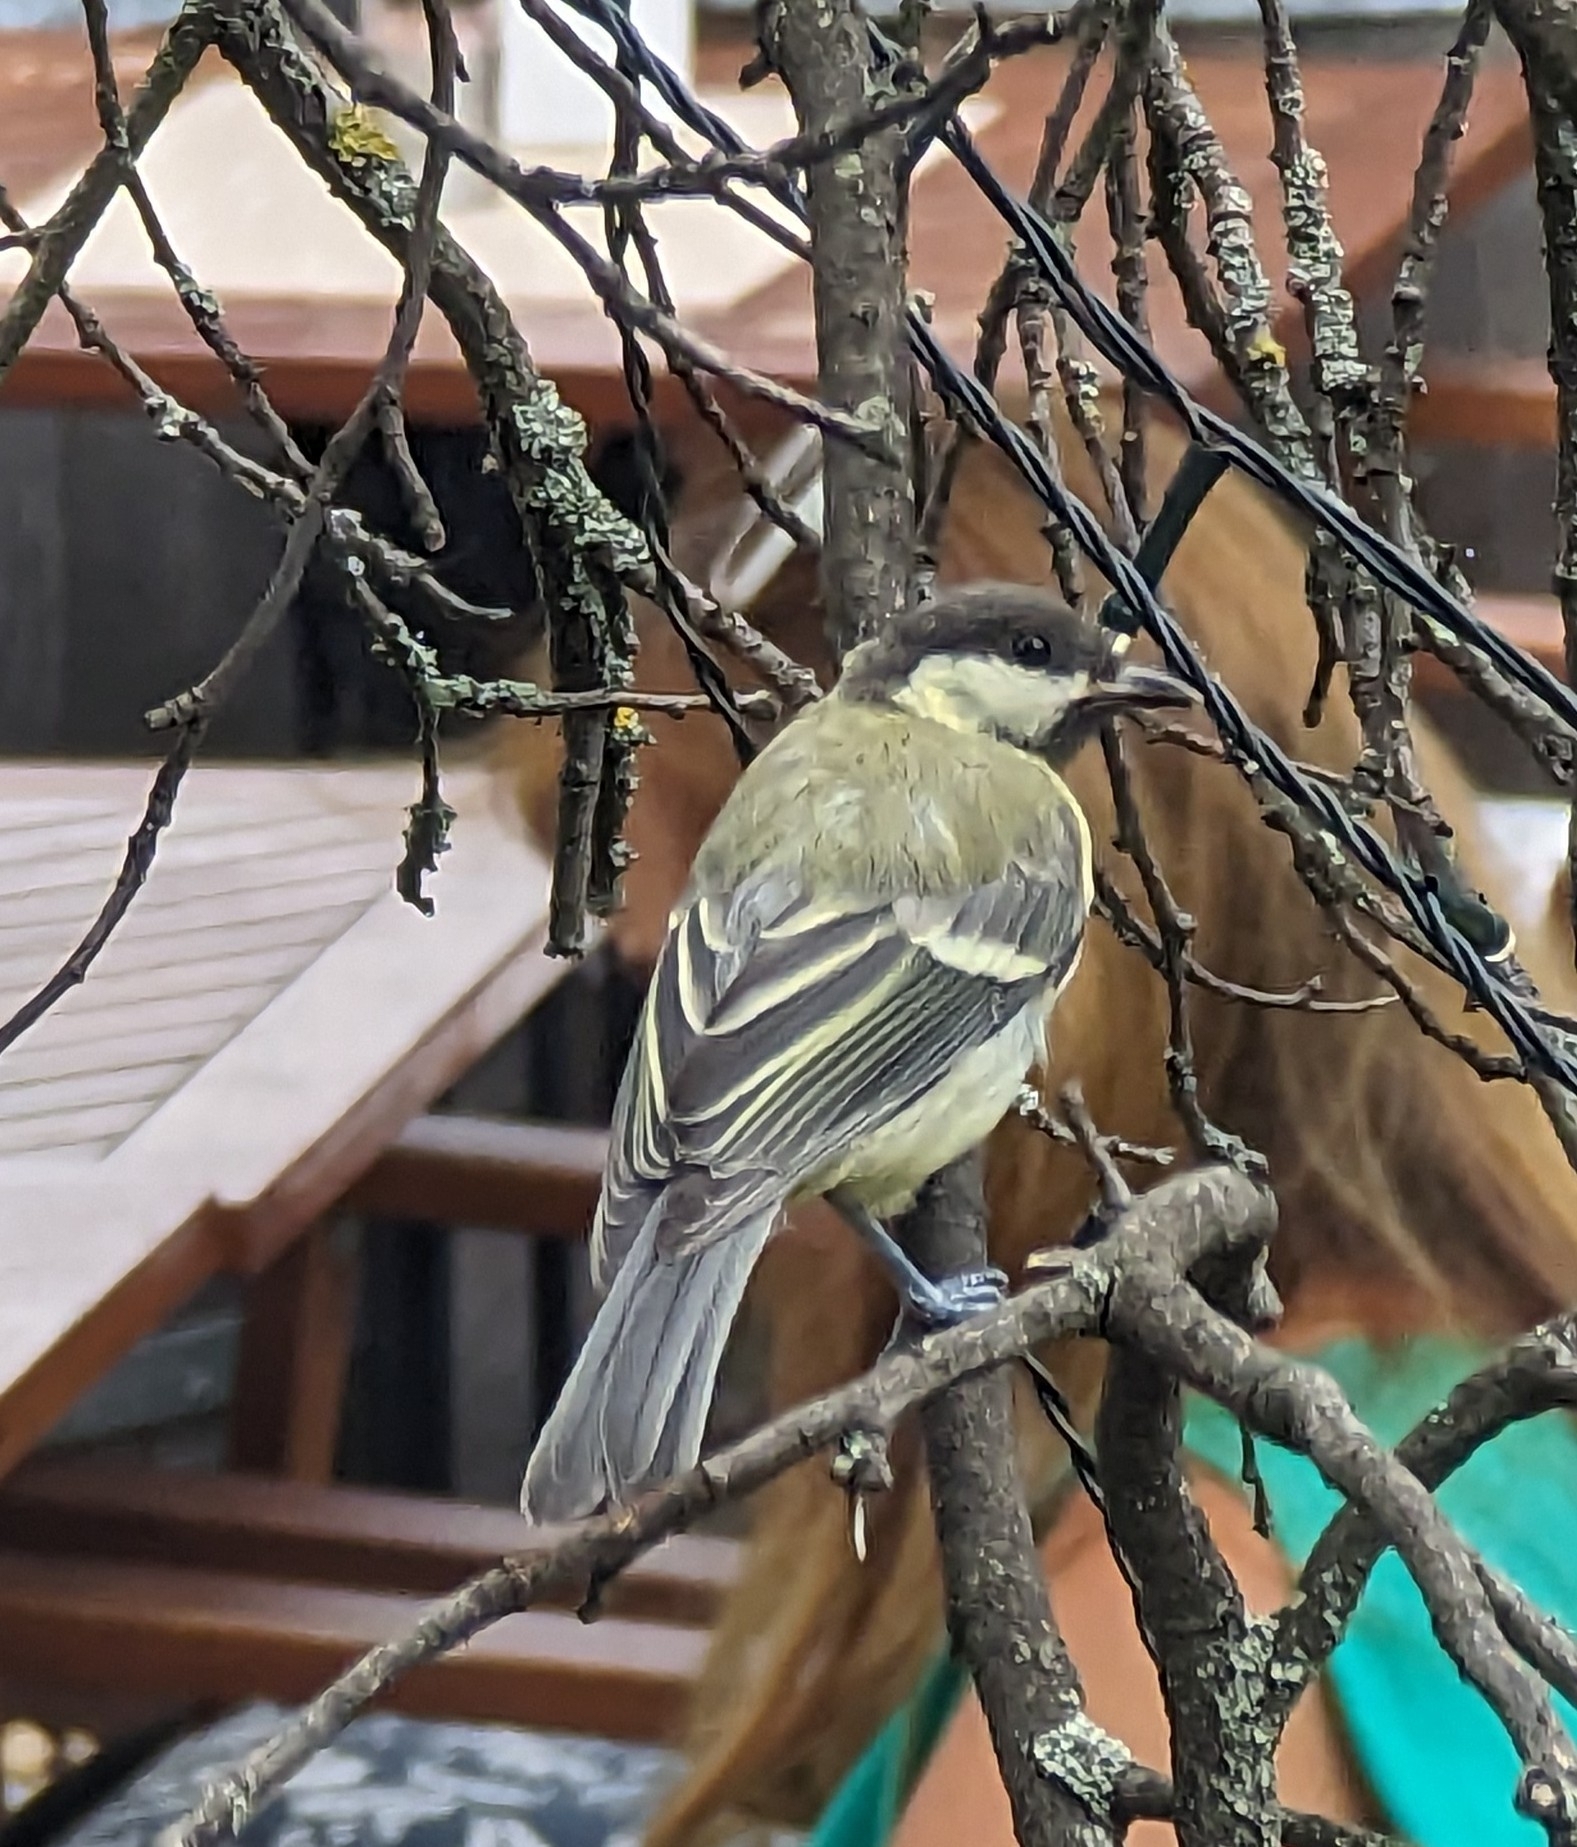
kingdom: Animalia
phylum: Chordata
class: Aves
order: Passeriformes
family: Paridae
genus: Parus
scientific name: Parus major
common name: Great tit
